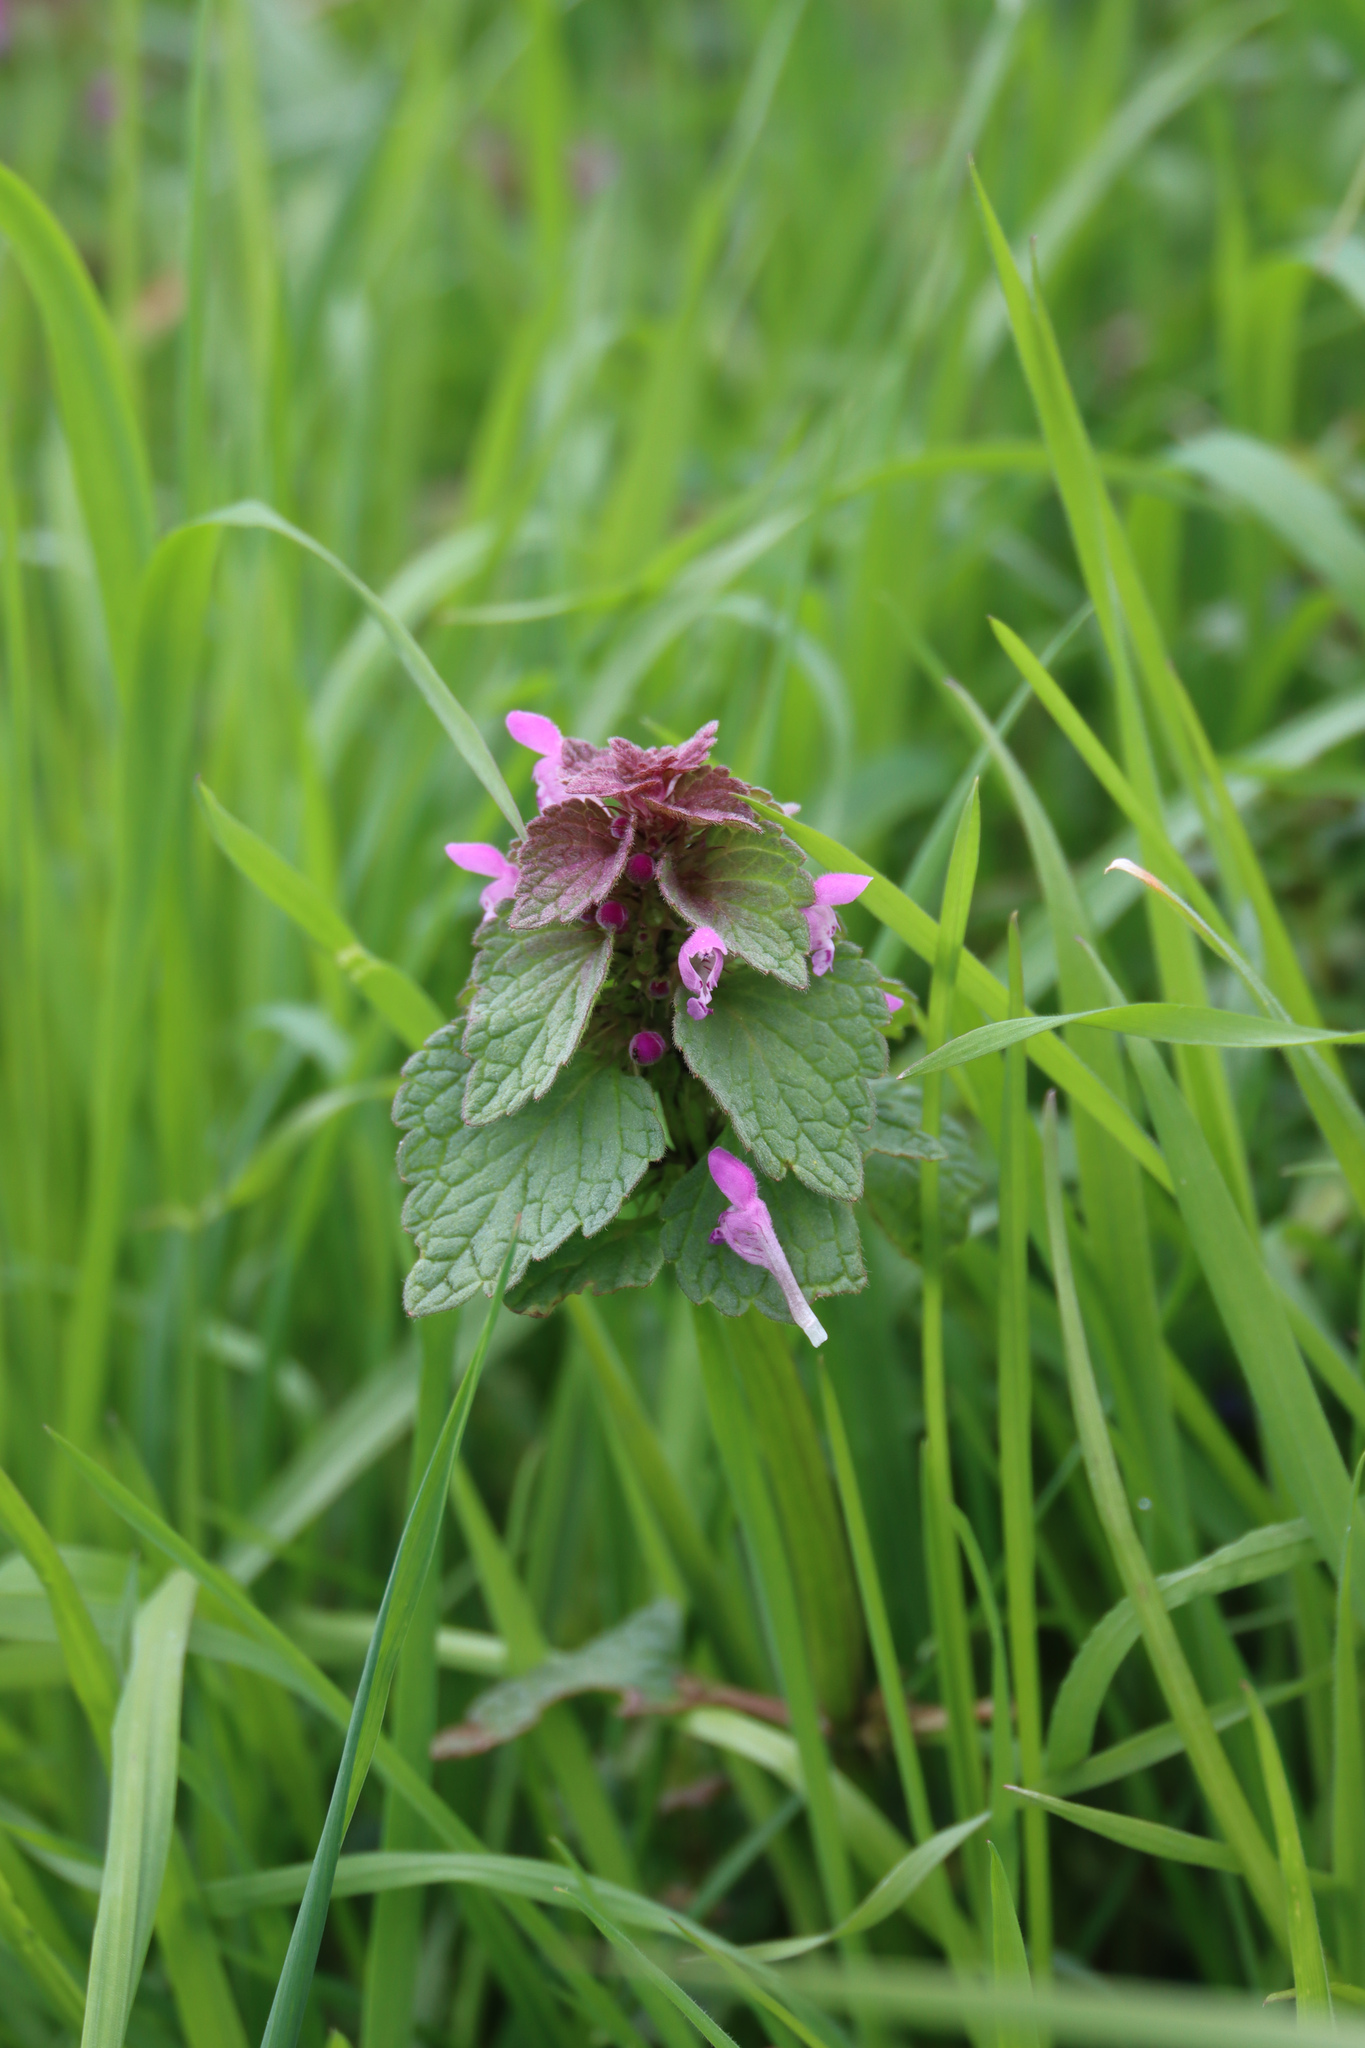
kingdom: Plantae
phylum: Tracheophyta
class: Magnoliopsida
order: Lamiales
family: Lamiaceae
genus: Lamium
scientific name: Lamium purpureum
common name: Red dead-nettle
